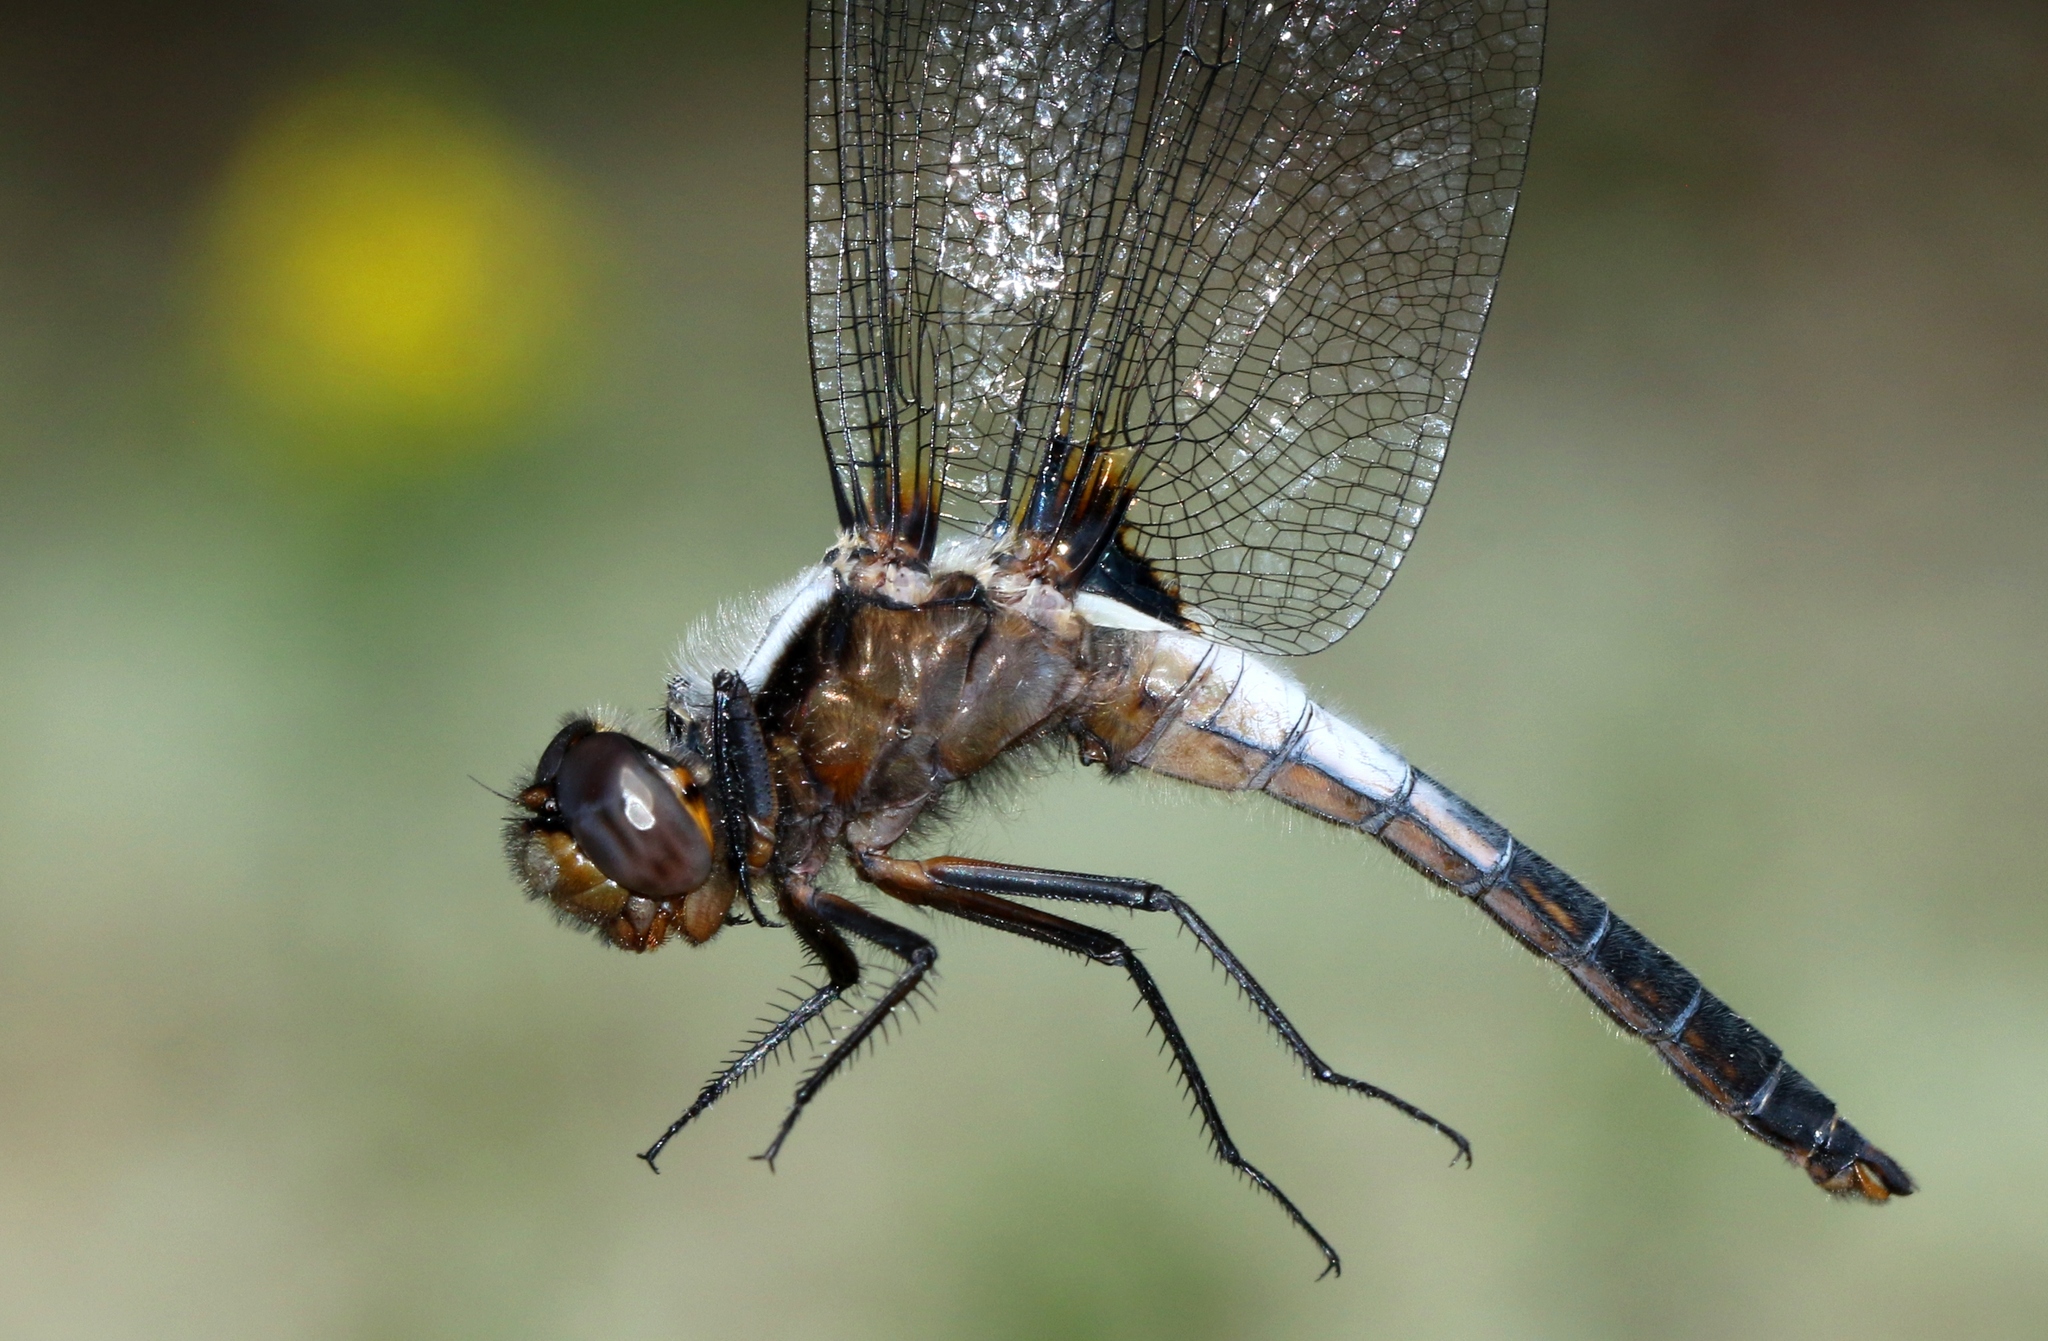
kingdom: Animalia
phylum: Arthropoda
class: Insecta
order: Odonata
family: Libellulidae
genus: Ladona
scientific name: Ladona julia
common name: Chalk-fronted corporal
